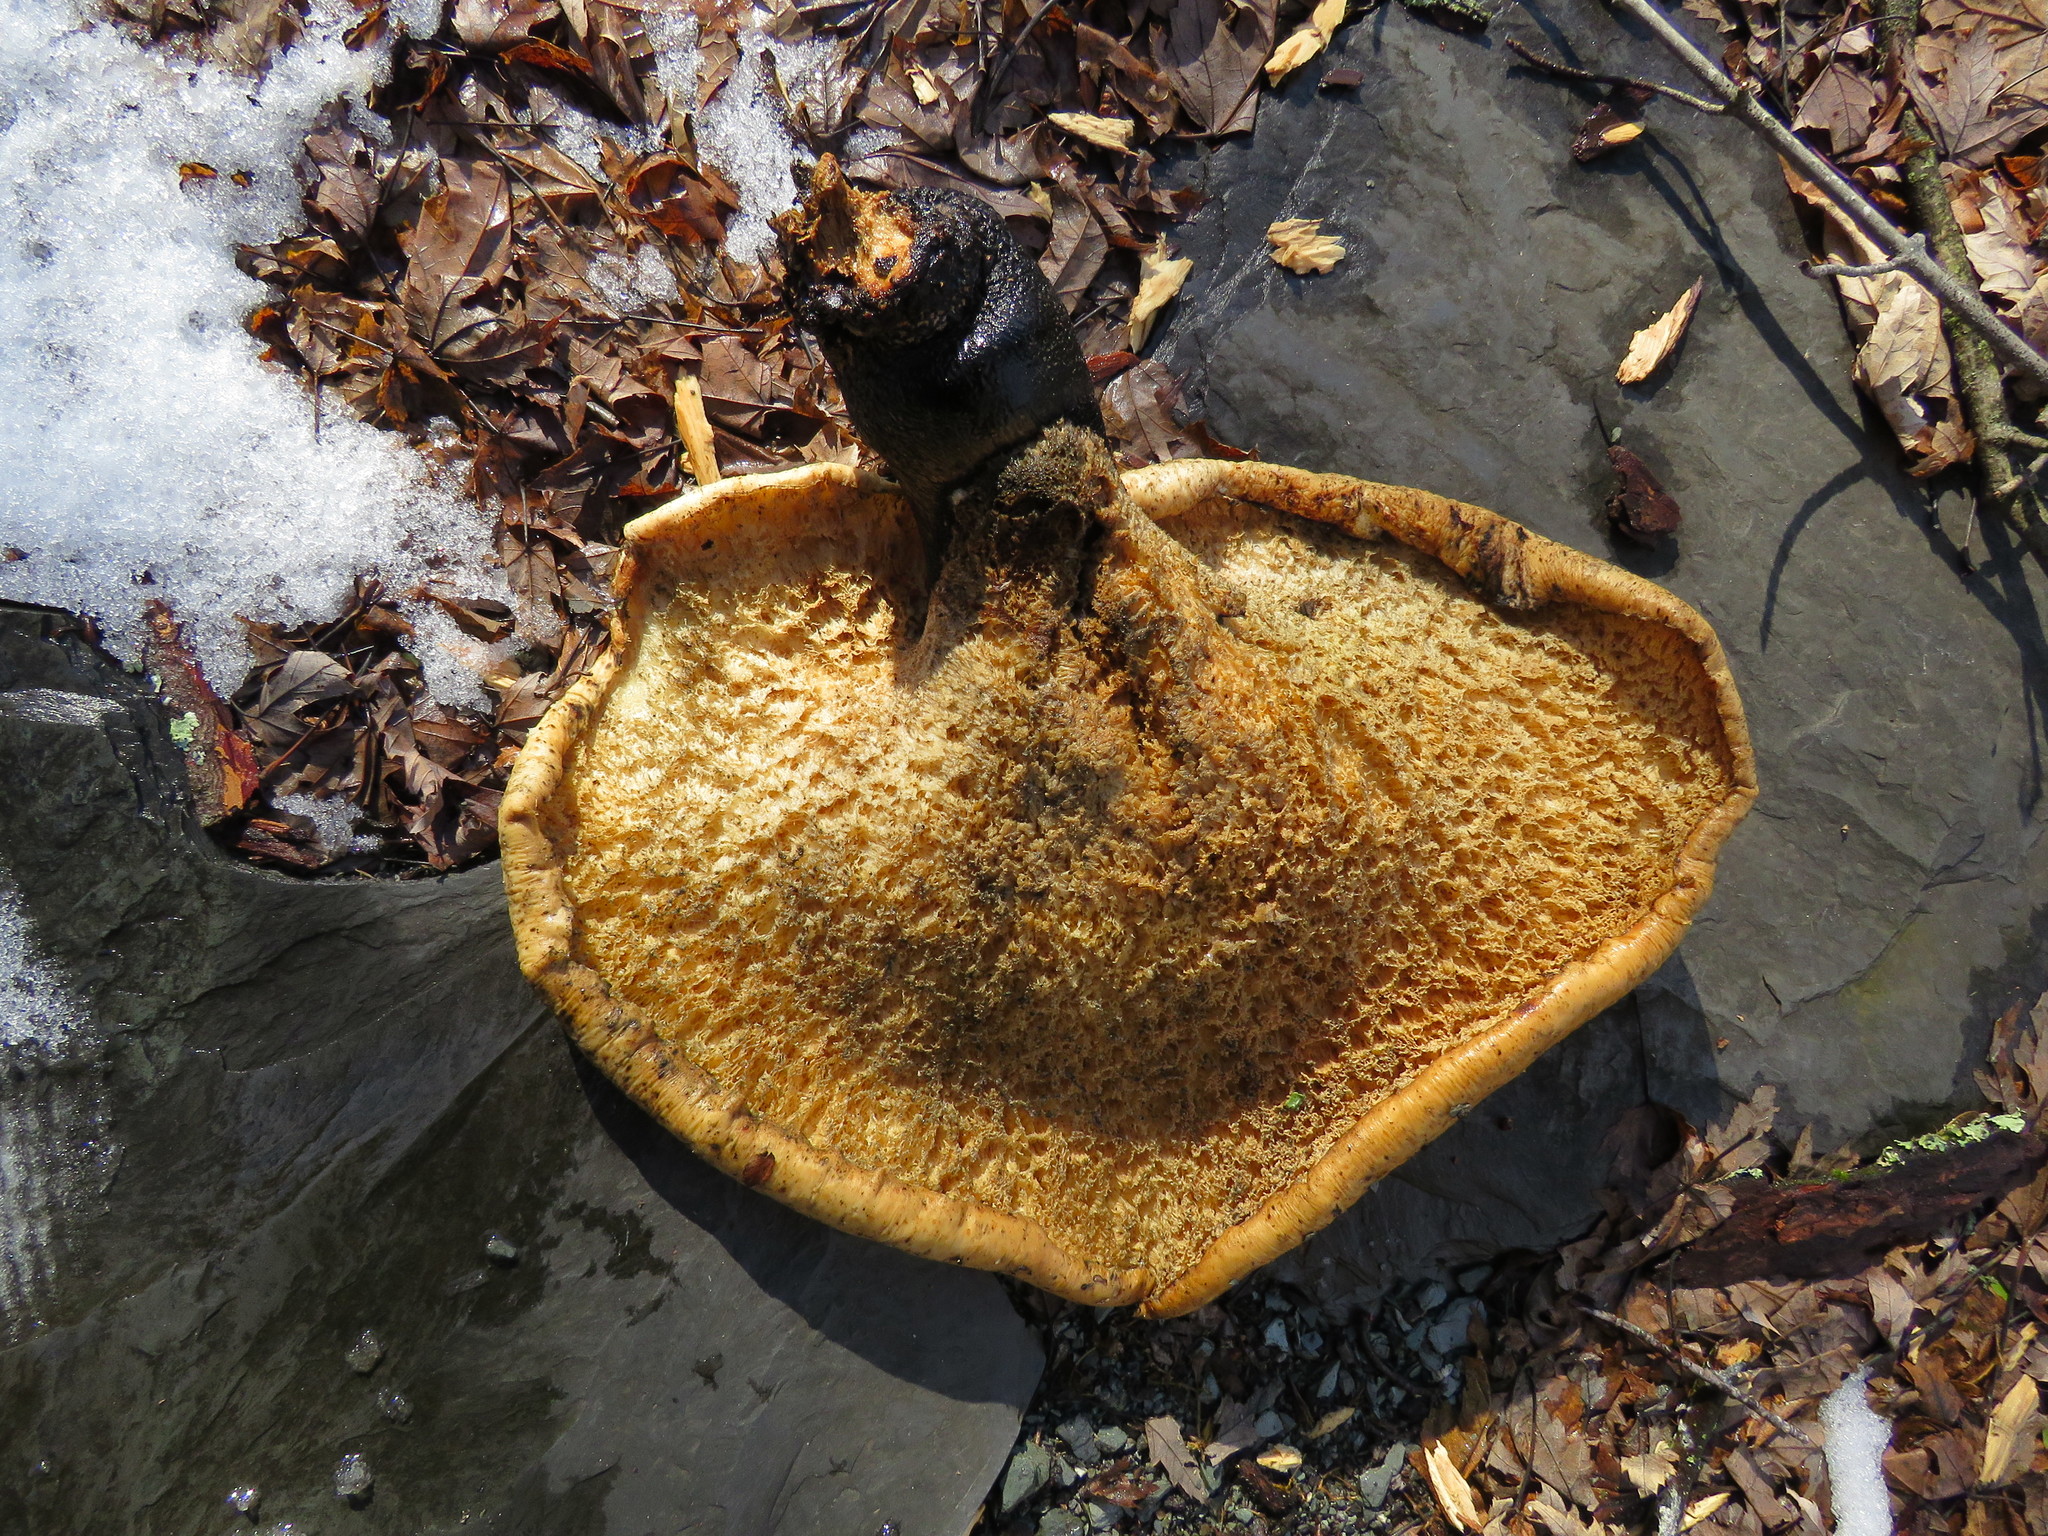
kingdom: Fungi
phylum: Basidiomycota
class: Agaricomycetes
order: Polyporales
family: Polyporaceae
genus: Cerioporus
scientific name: Cerioporus squamosus
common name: Dryad's saddle
